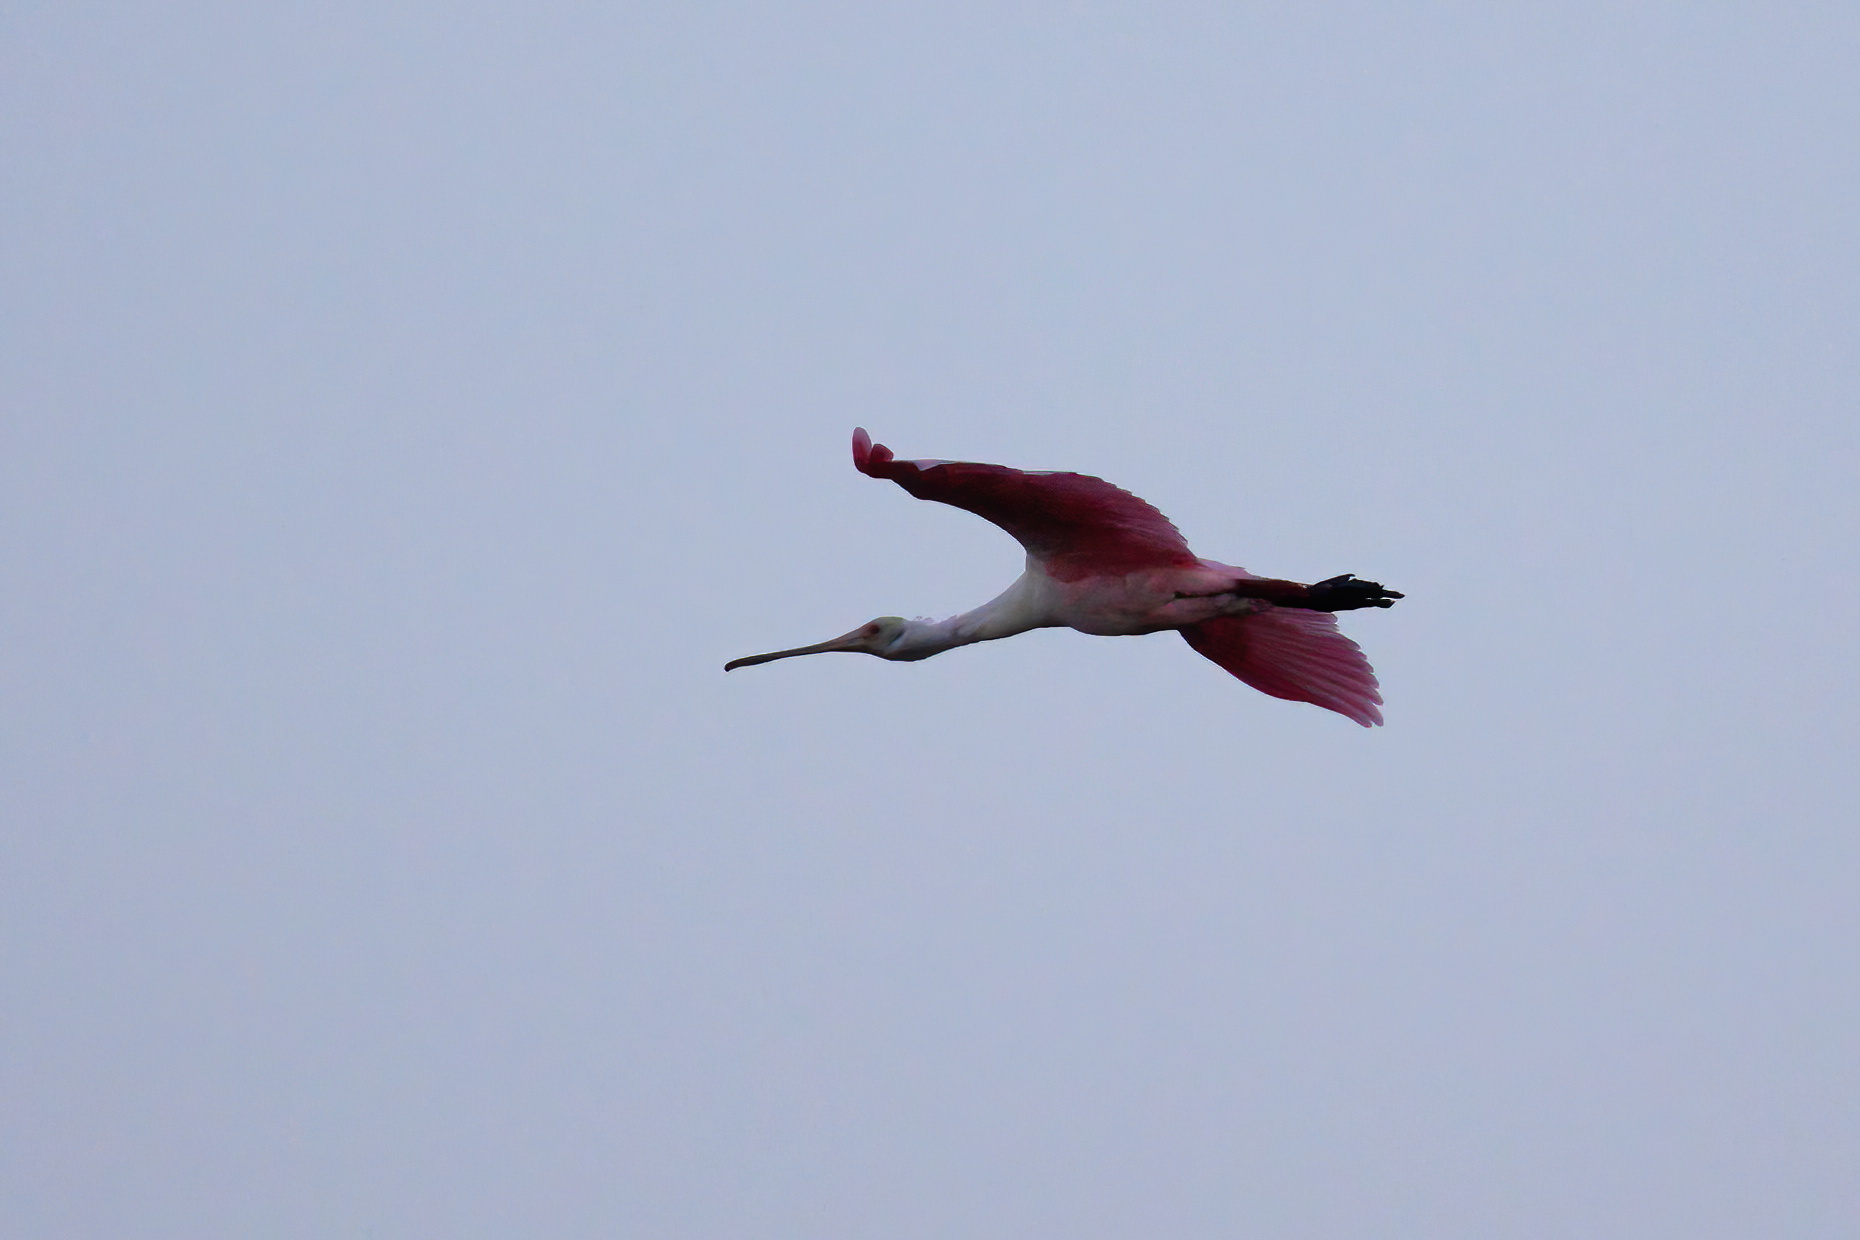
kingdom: Animalia
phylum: Chordata
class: Aves
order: Pelecaniformes
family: Threskiornithidae
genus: Platalea
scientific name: Platalea ajaja
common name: Roseate spoonbill
